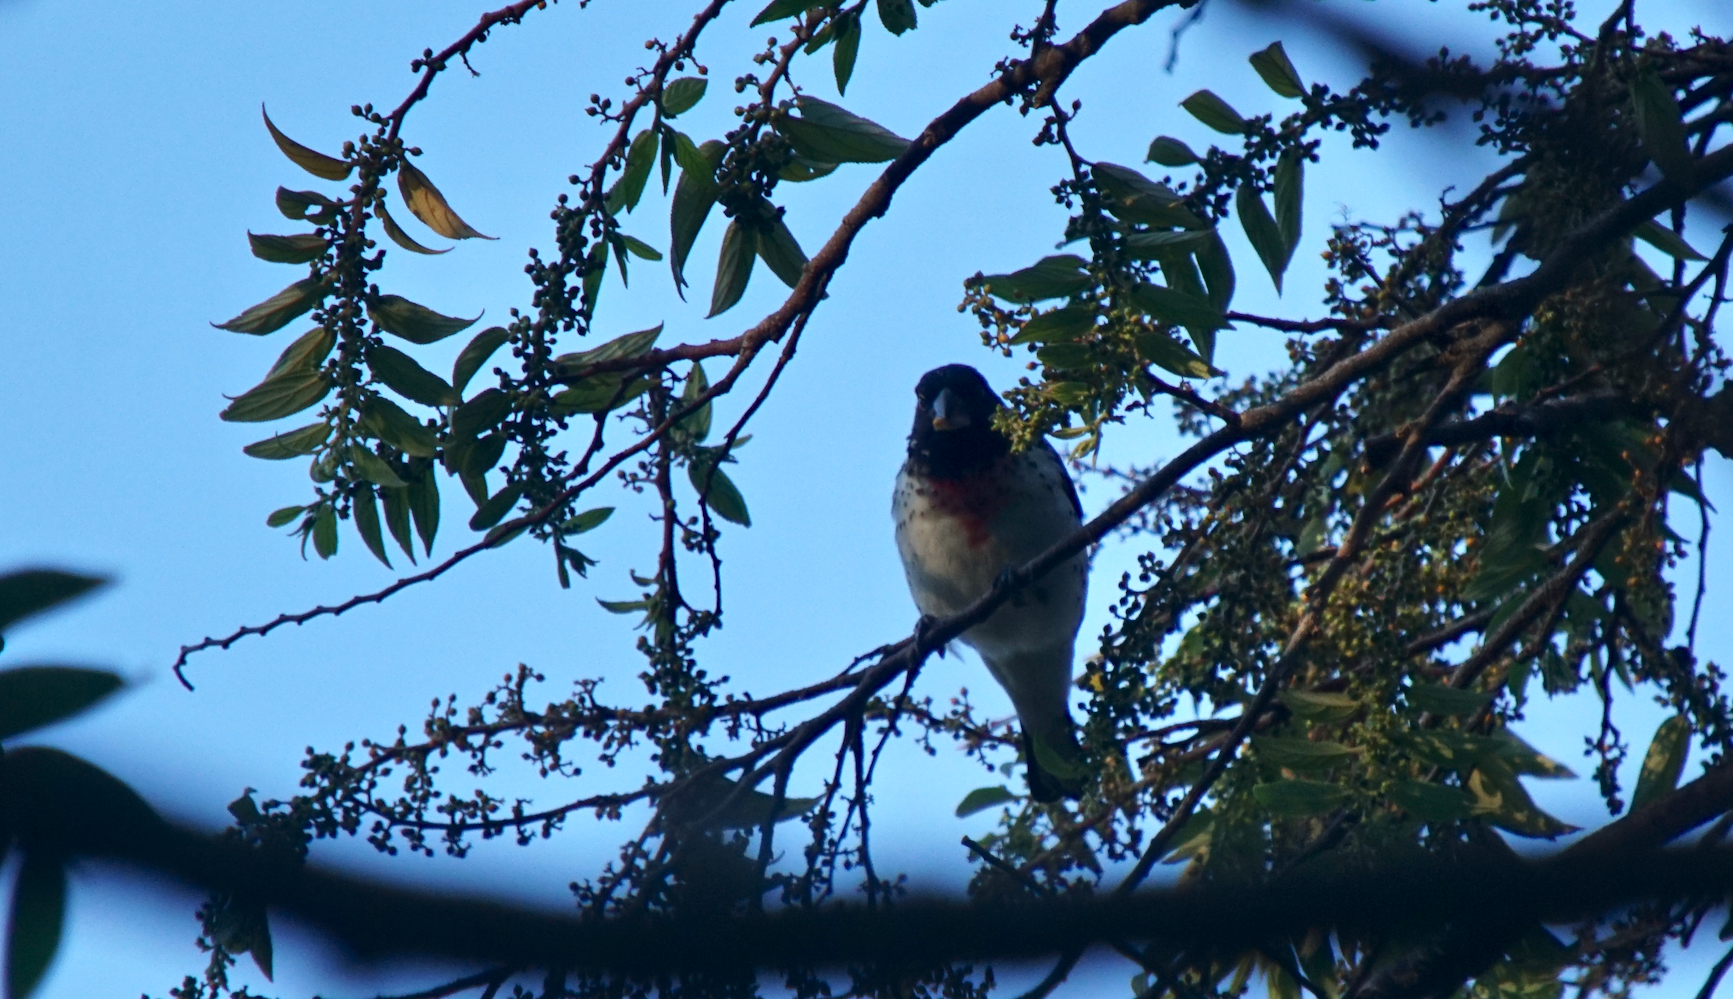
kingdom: Animalia
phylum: Chordata
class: Aves
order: Passeriformes
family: Cardinalidae
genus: Pheucticus
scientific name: Pheucticus ludovicianus
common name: Rose-breasted grosbeak
